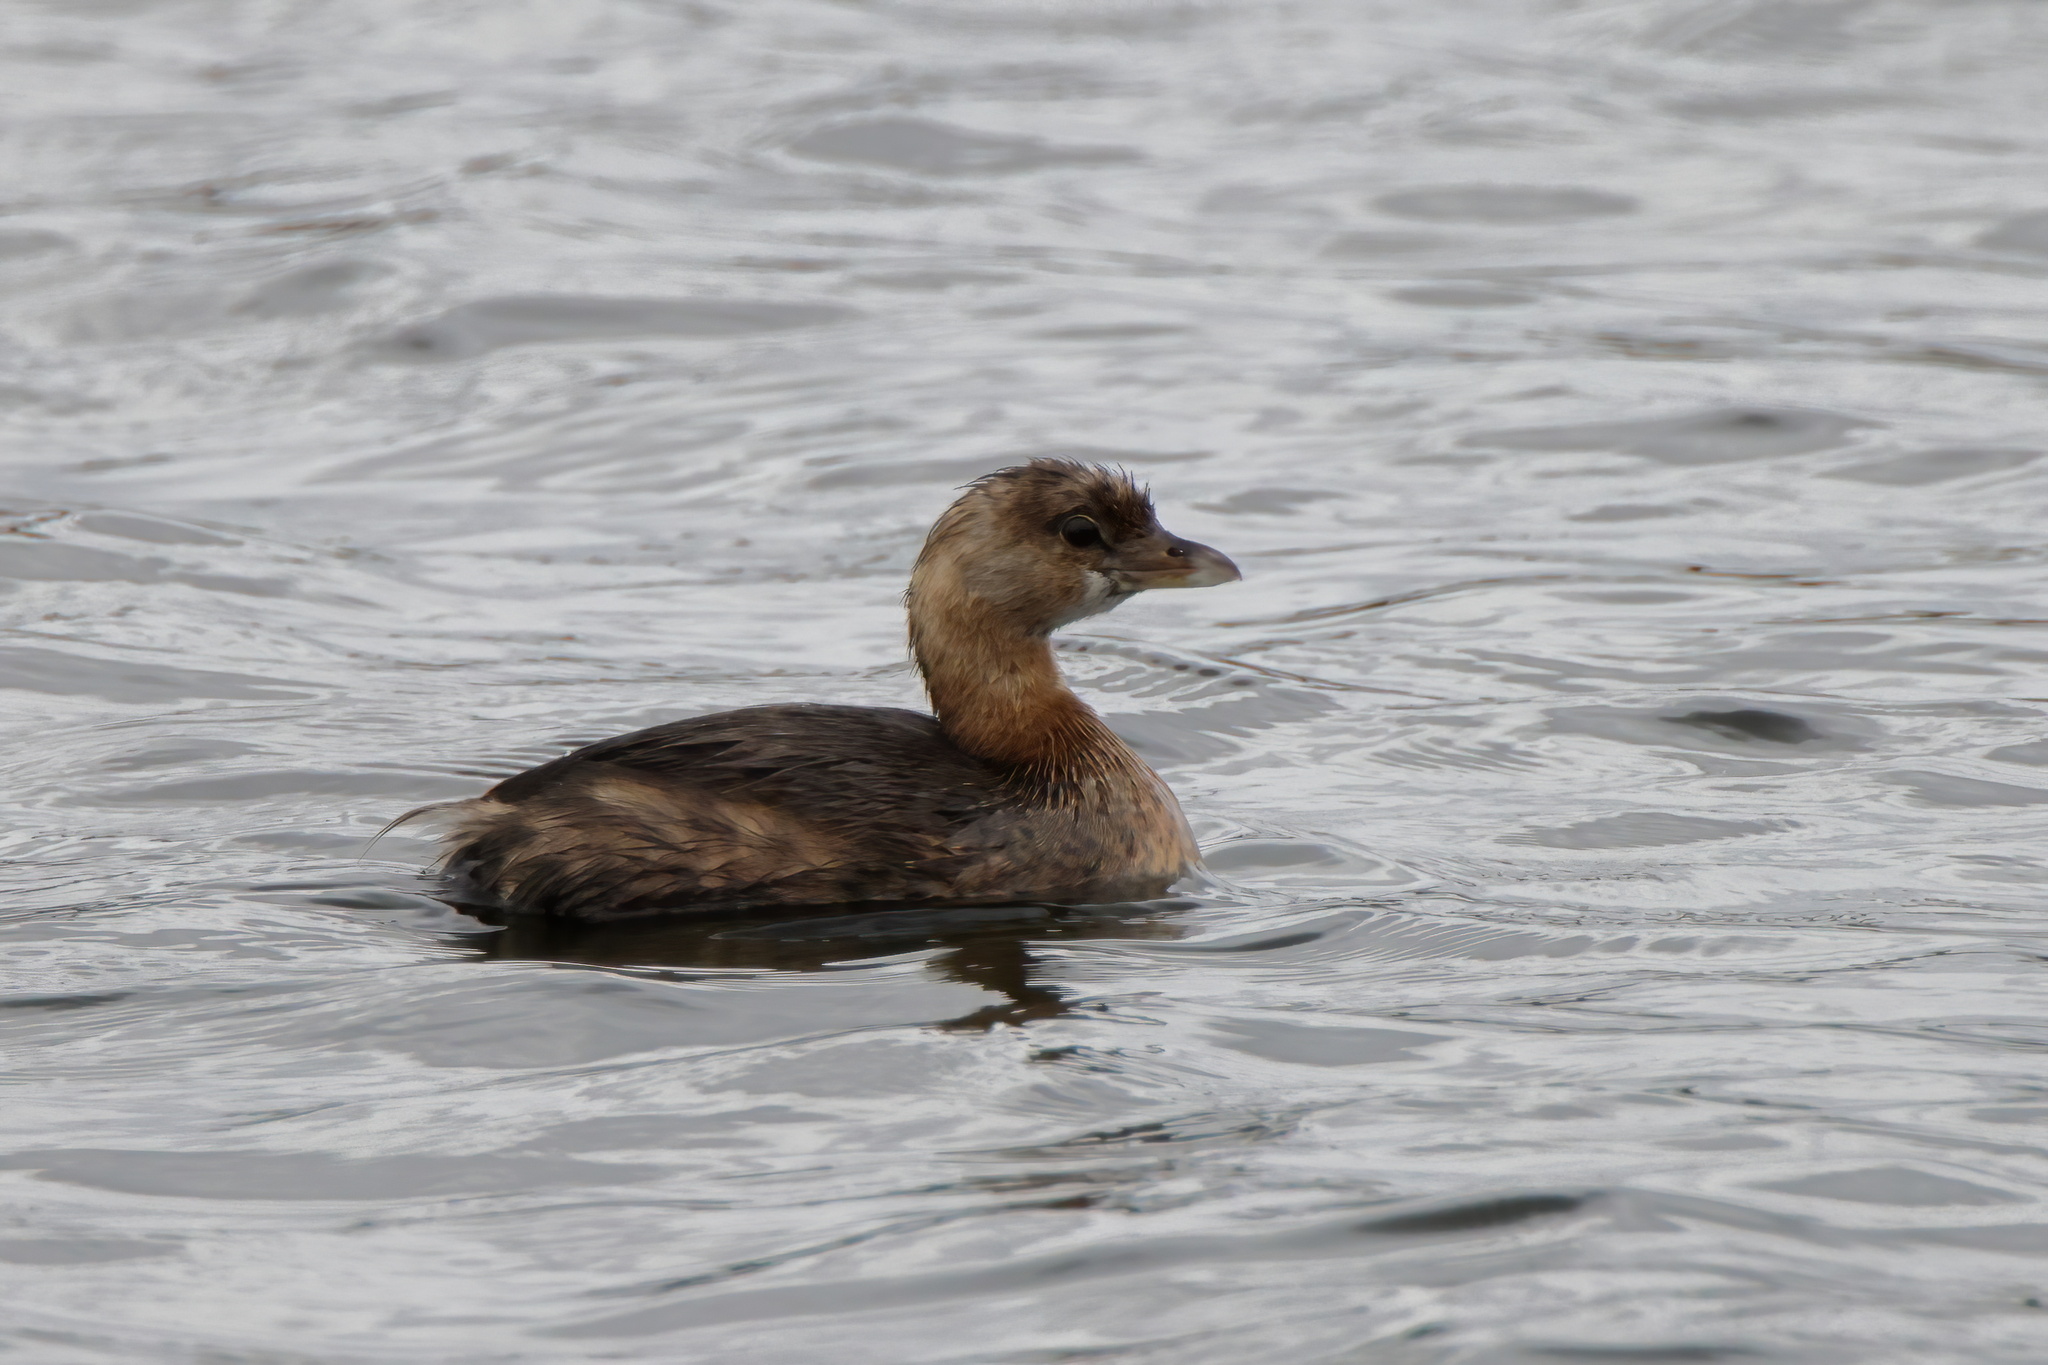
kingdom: Animalia
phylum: Chordata
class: Aves
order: Podicipediformes
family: Podicipedidae
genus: Podilymbus
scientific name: Podilymbus podiceps
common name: Pied-billed grebe
